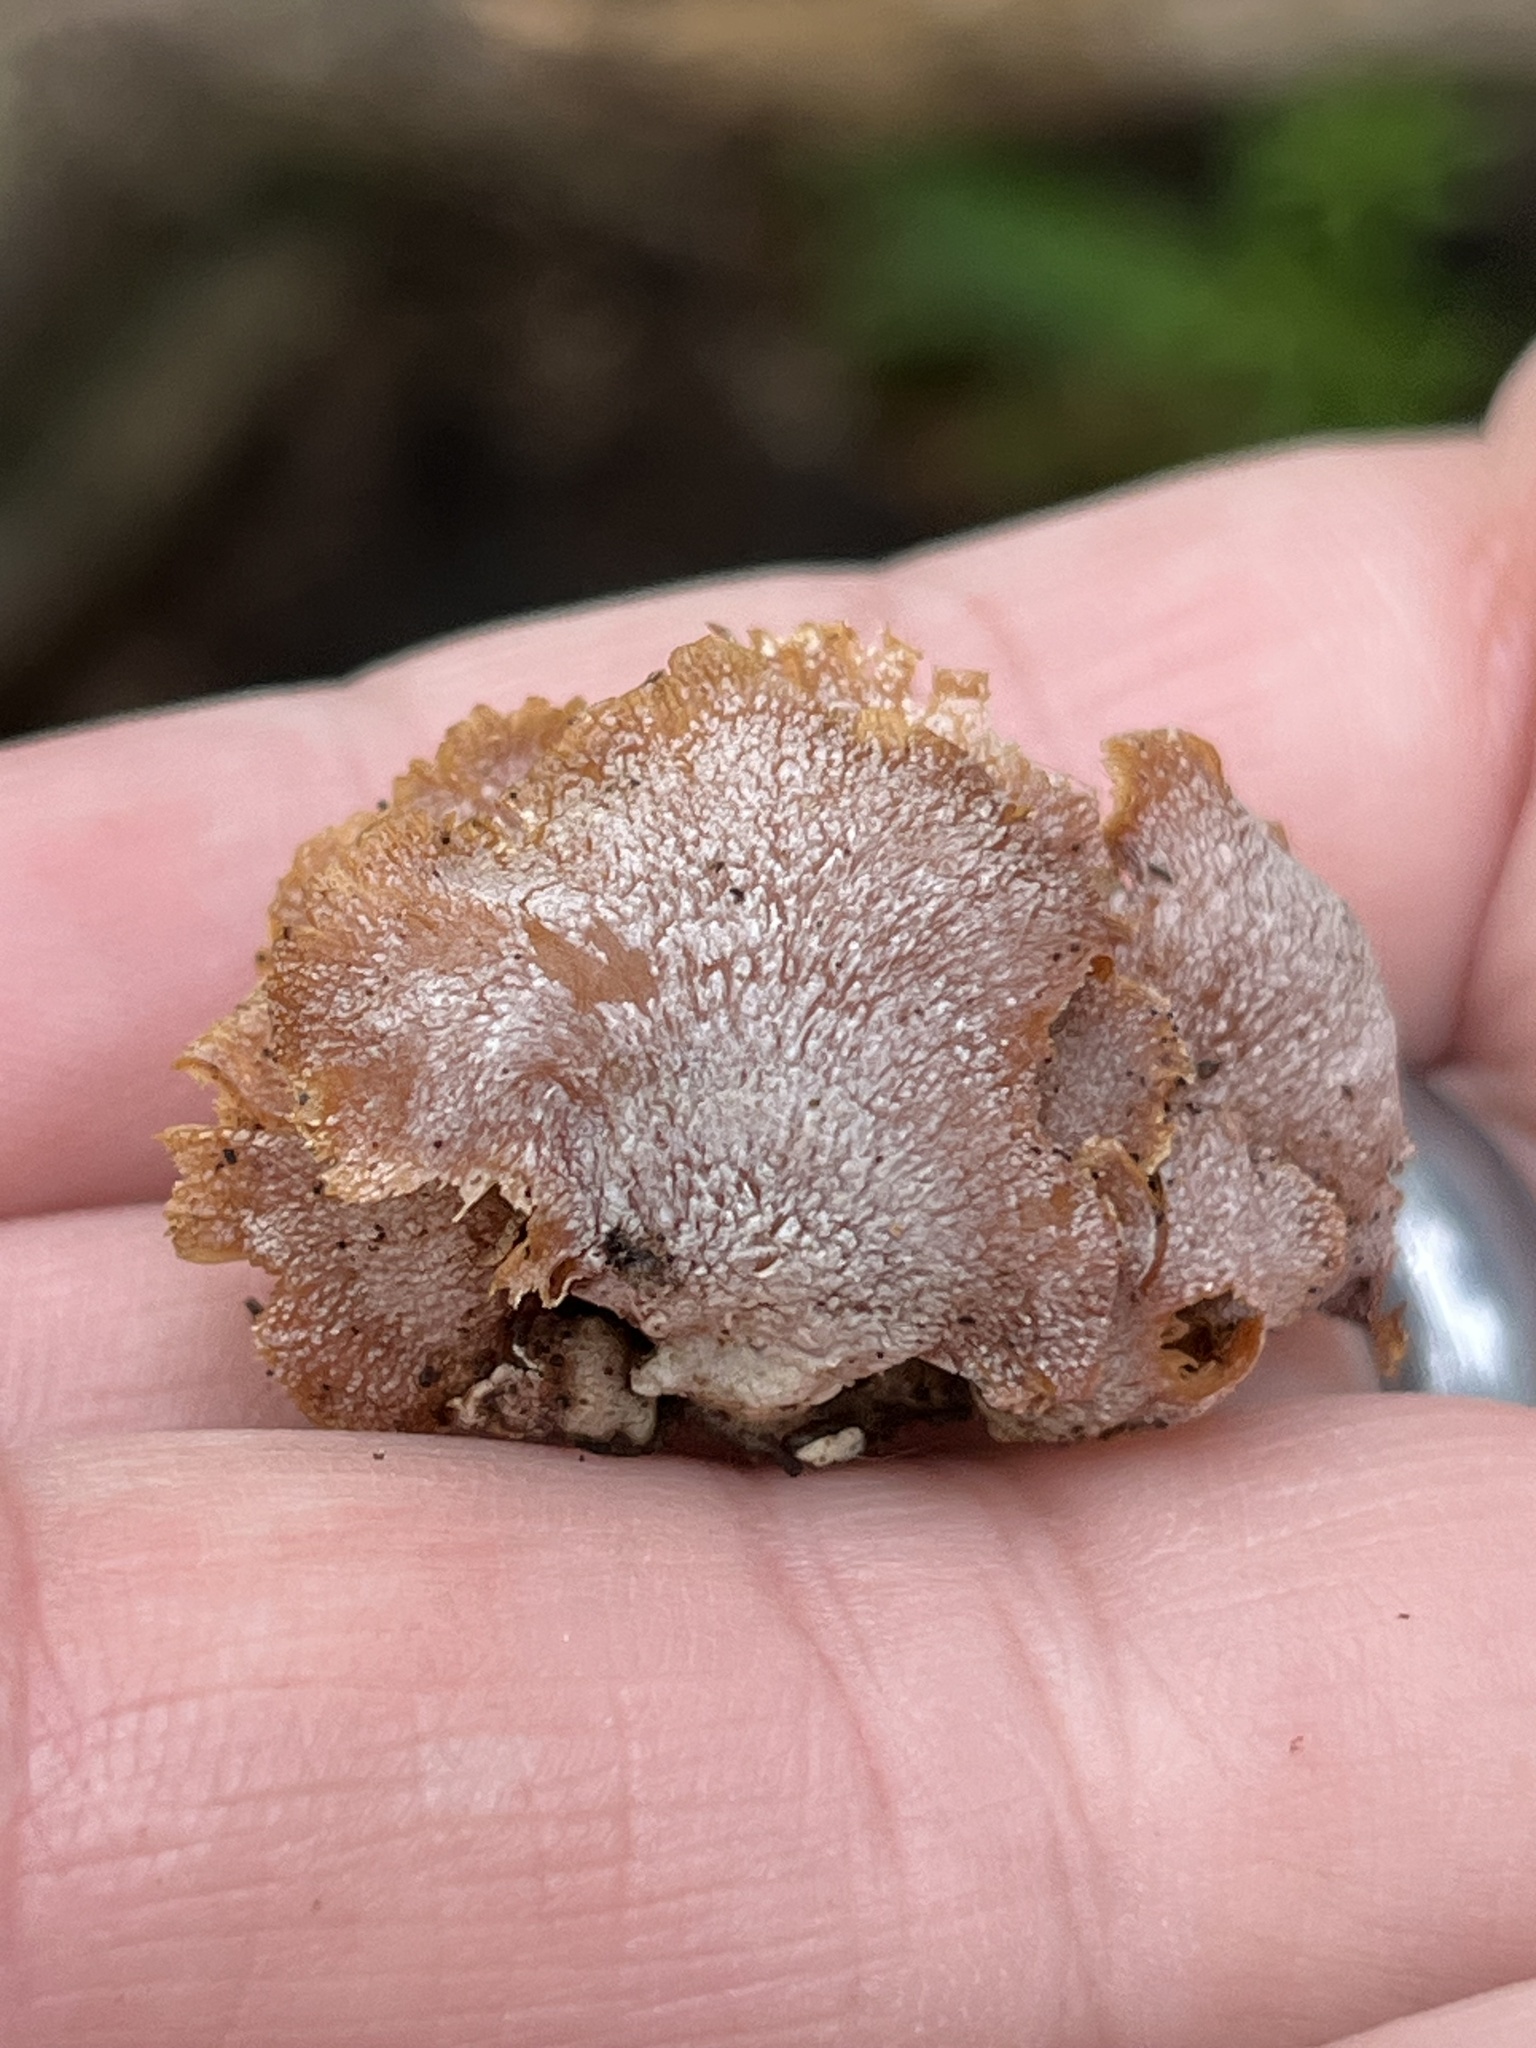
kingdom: Fungi
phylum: Basidiomycota
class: Agaricomycetes
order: Agaricales
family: Mycenaceae
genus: Panellus
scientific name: Panellus stipticus
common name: Bitter oysterling
